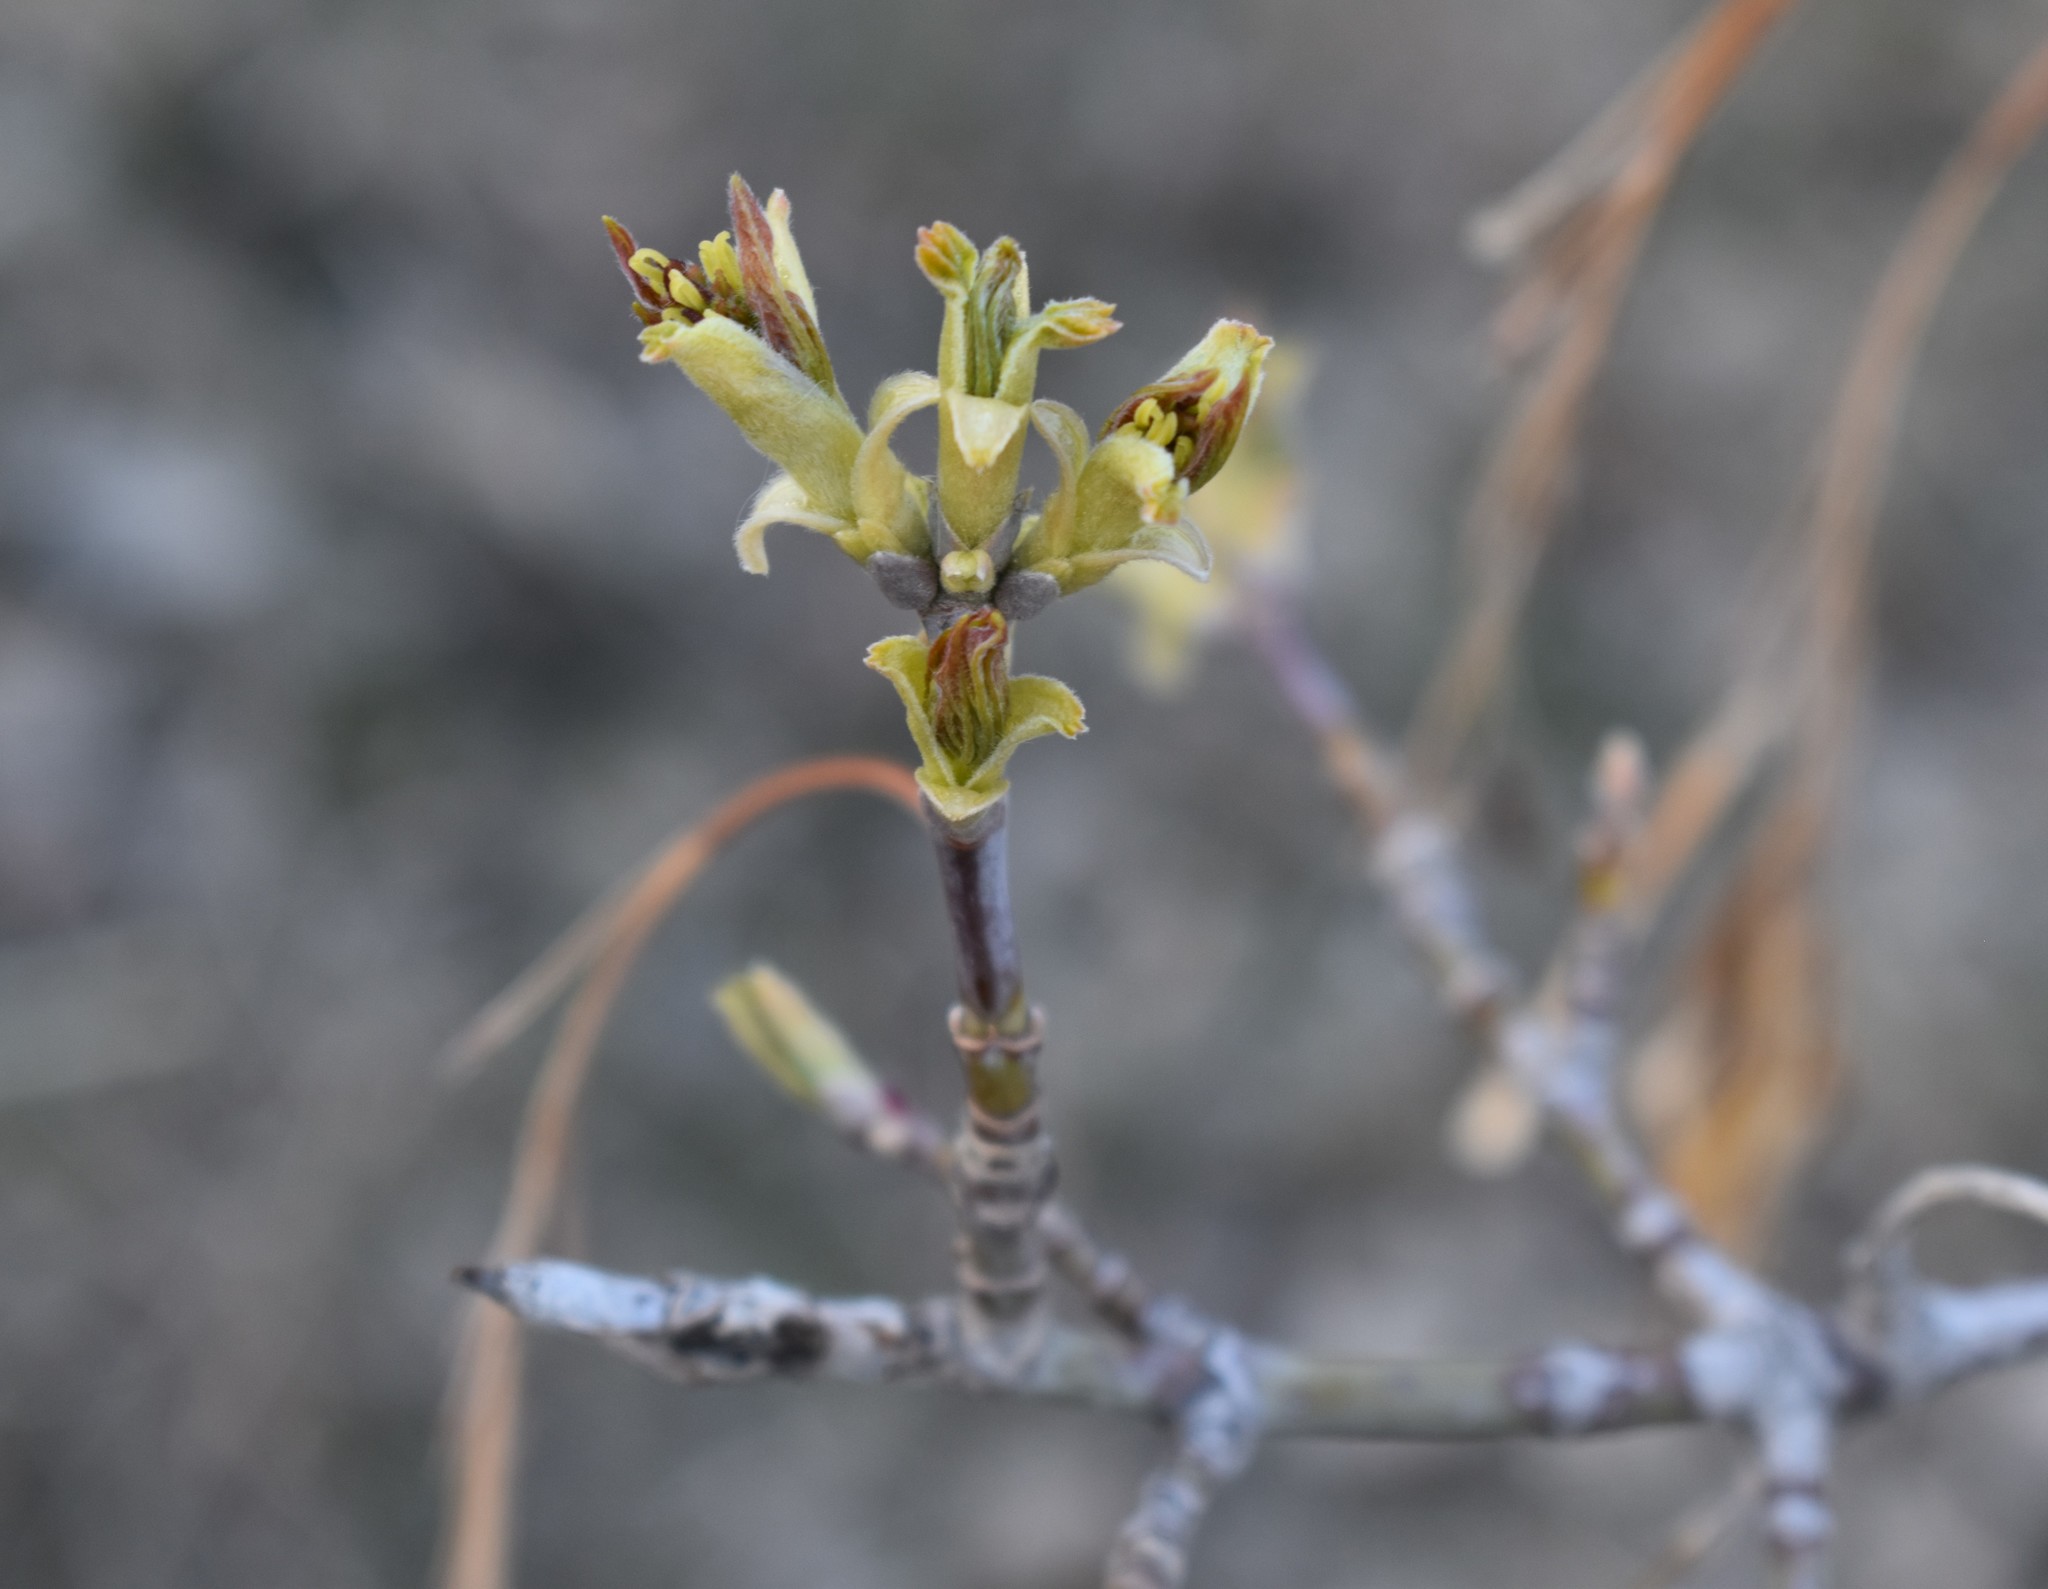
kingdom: Plantae
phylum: Tracheophyta
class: Magnoliopsida
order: Sapindales
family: Sapindaceae
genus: Acer
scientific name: Acer negundo
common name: Ashleaf maple
